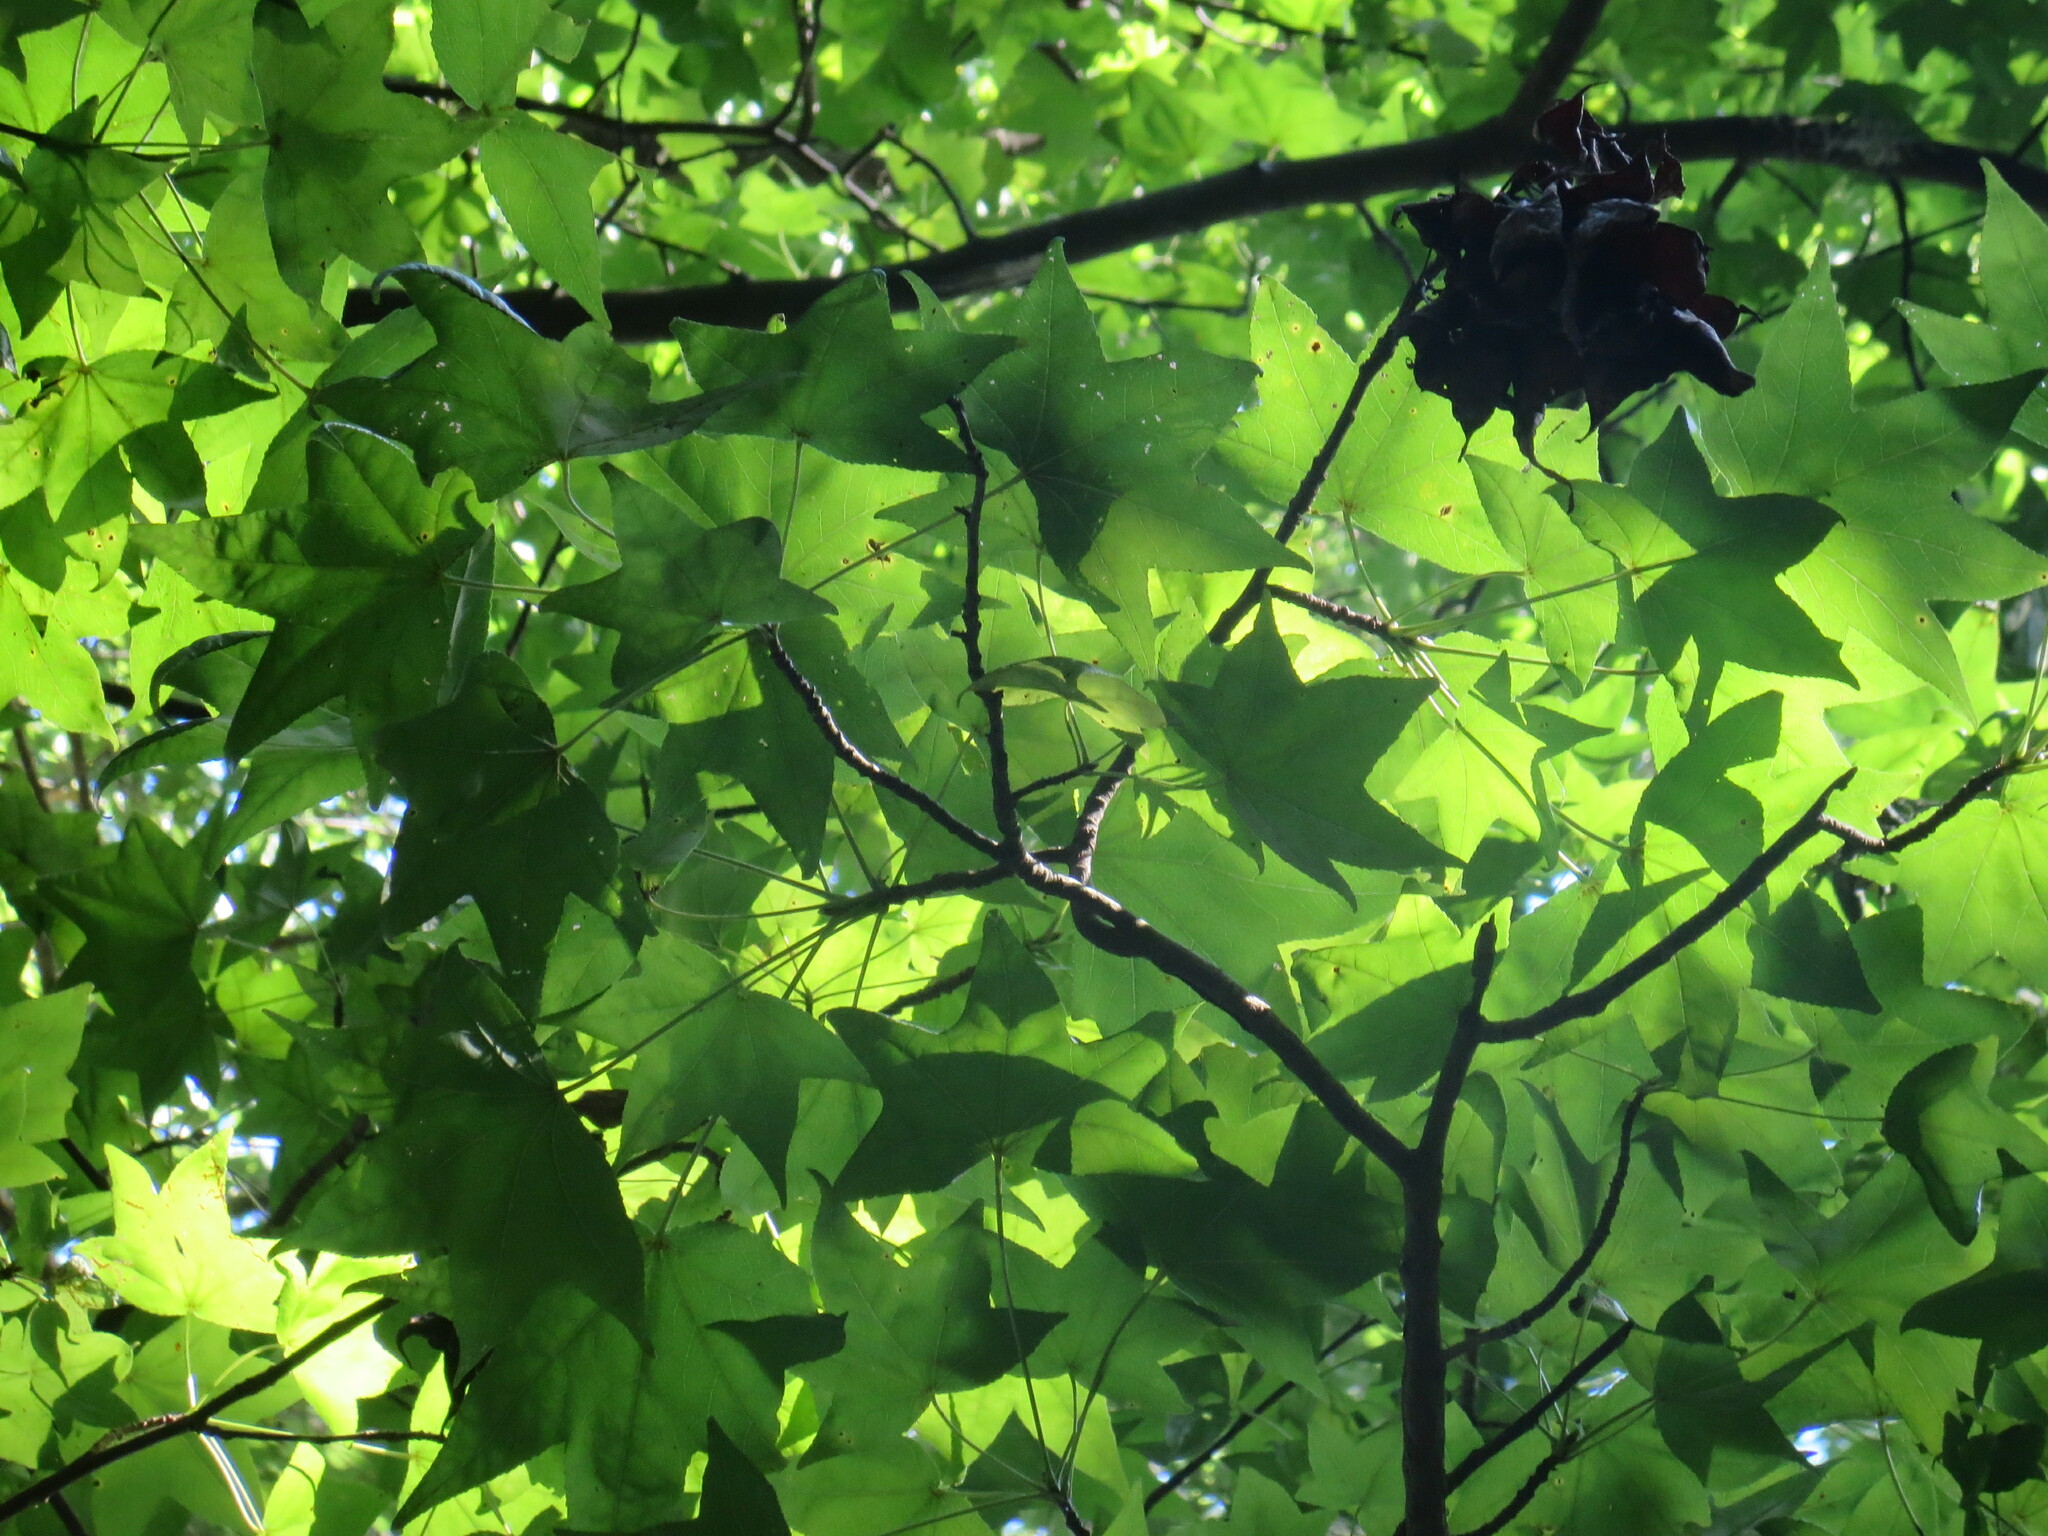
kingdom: Plantae
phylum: Tracheophyta
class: Magnoliopsida
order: Saxifragales
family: Altingiaceae
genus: Liquidambar
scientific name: Liquidambar styraciflua
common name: Sweet gum
